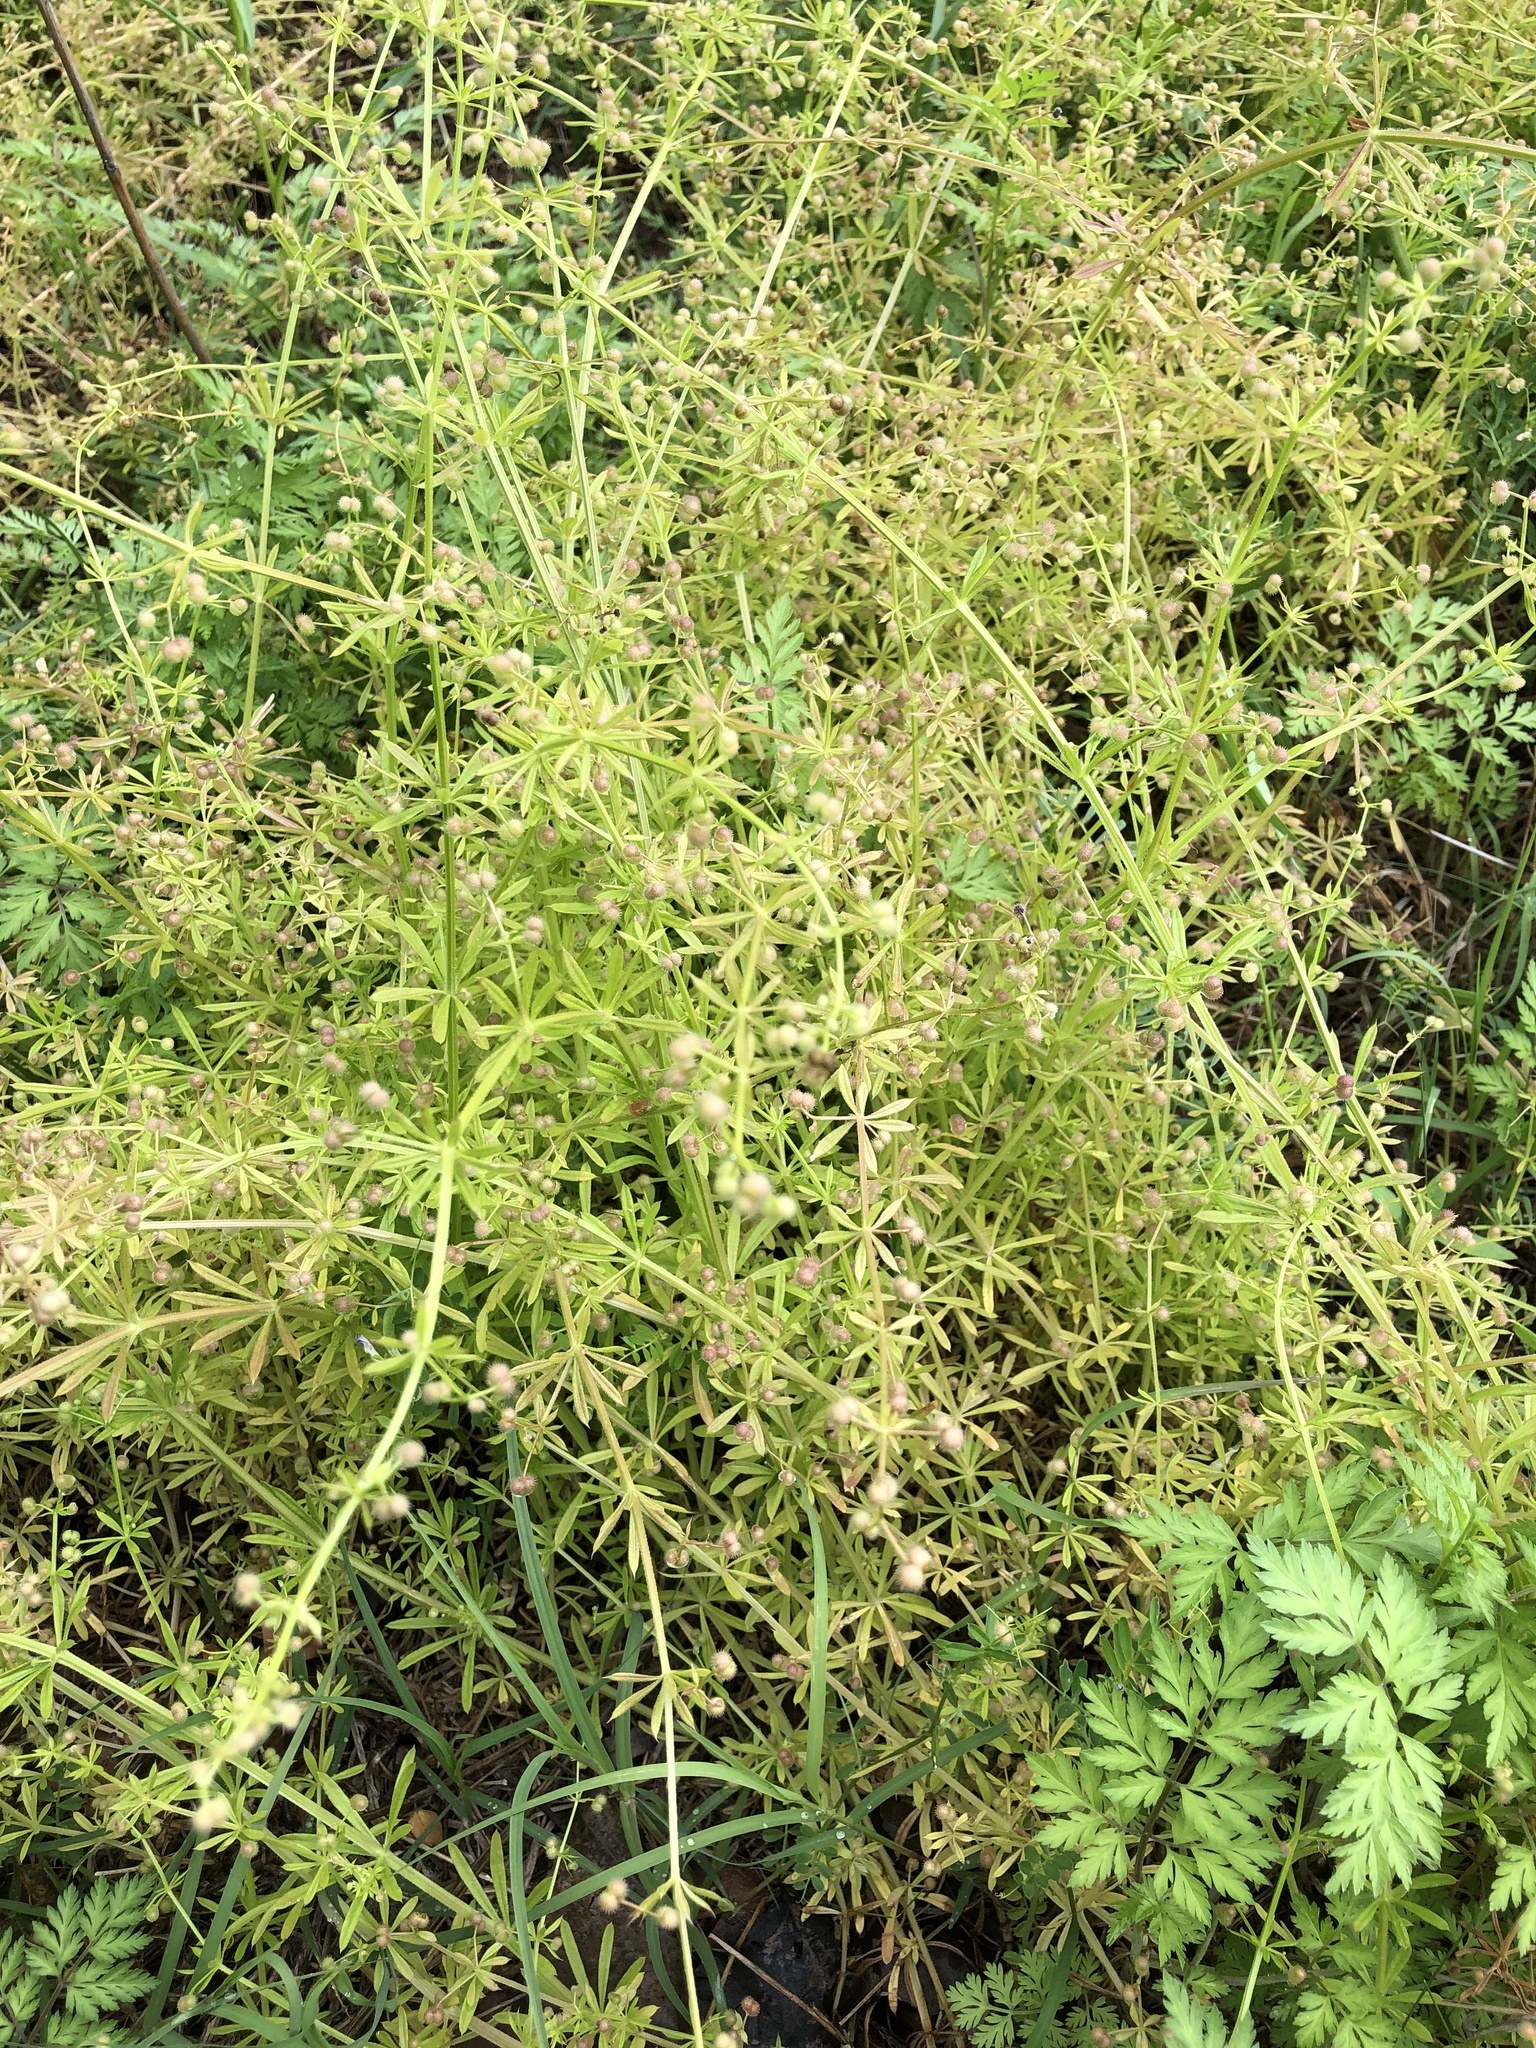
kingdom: Plantae
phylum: Tracheophyta
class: Magnoliopsida
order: Gentianales
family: Rubiaceae
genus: Galium
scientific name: Galium aparine
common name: Cleavers
